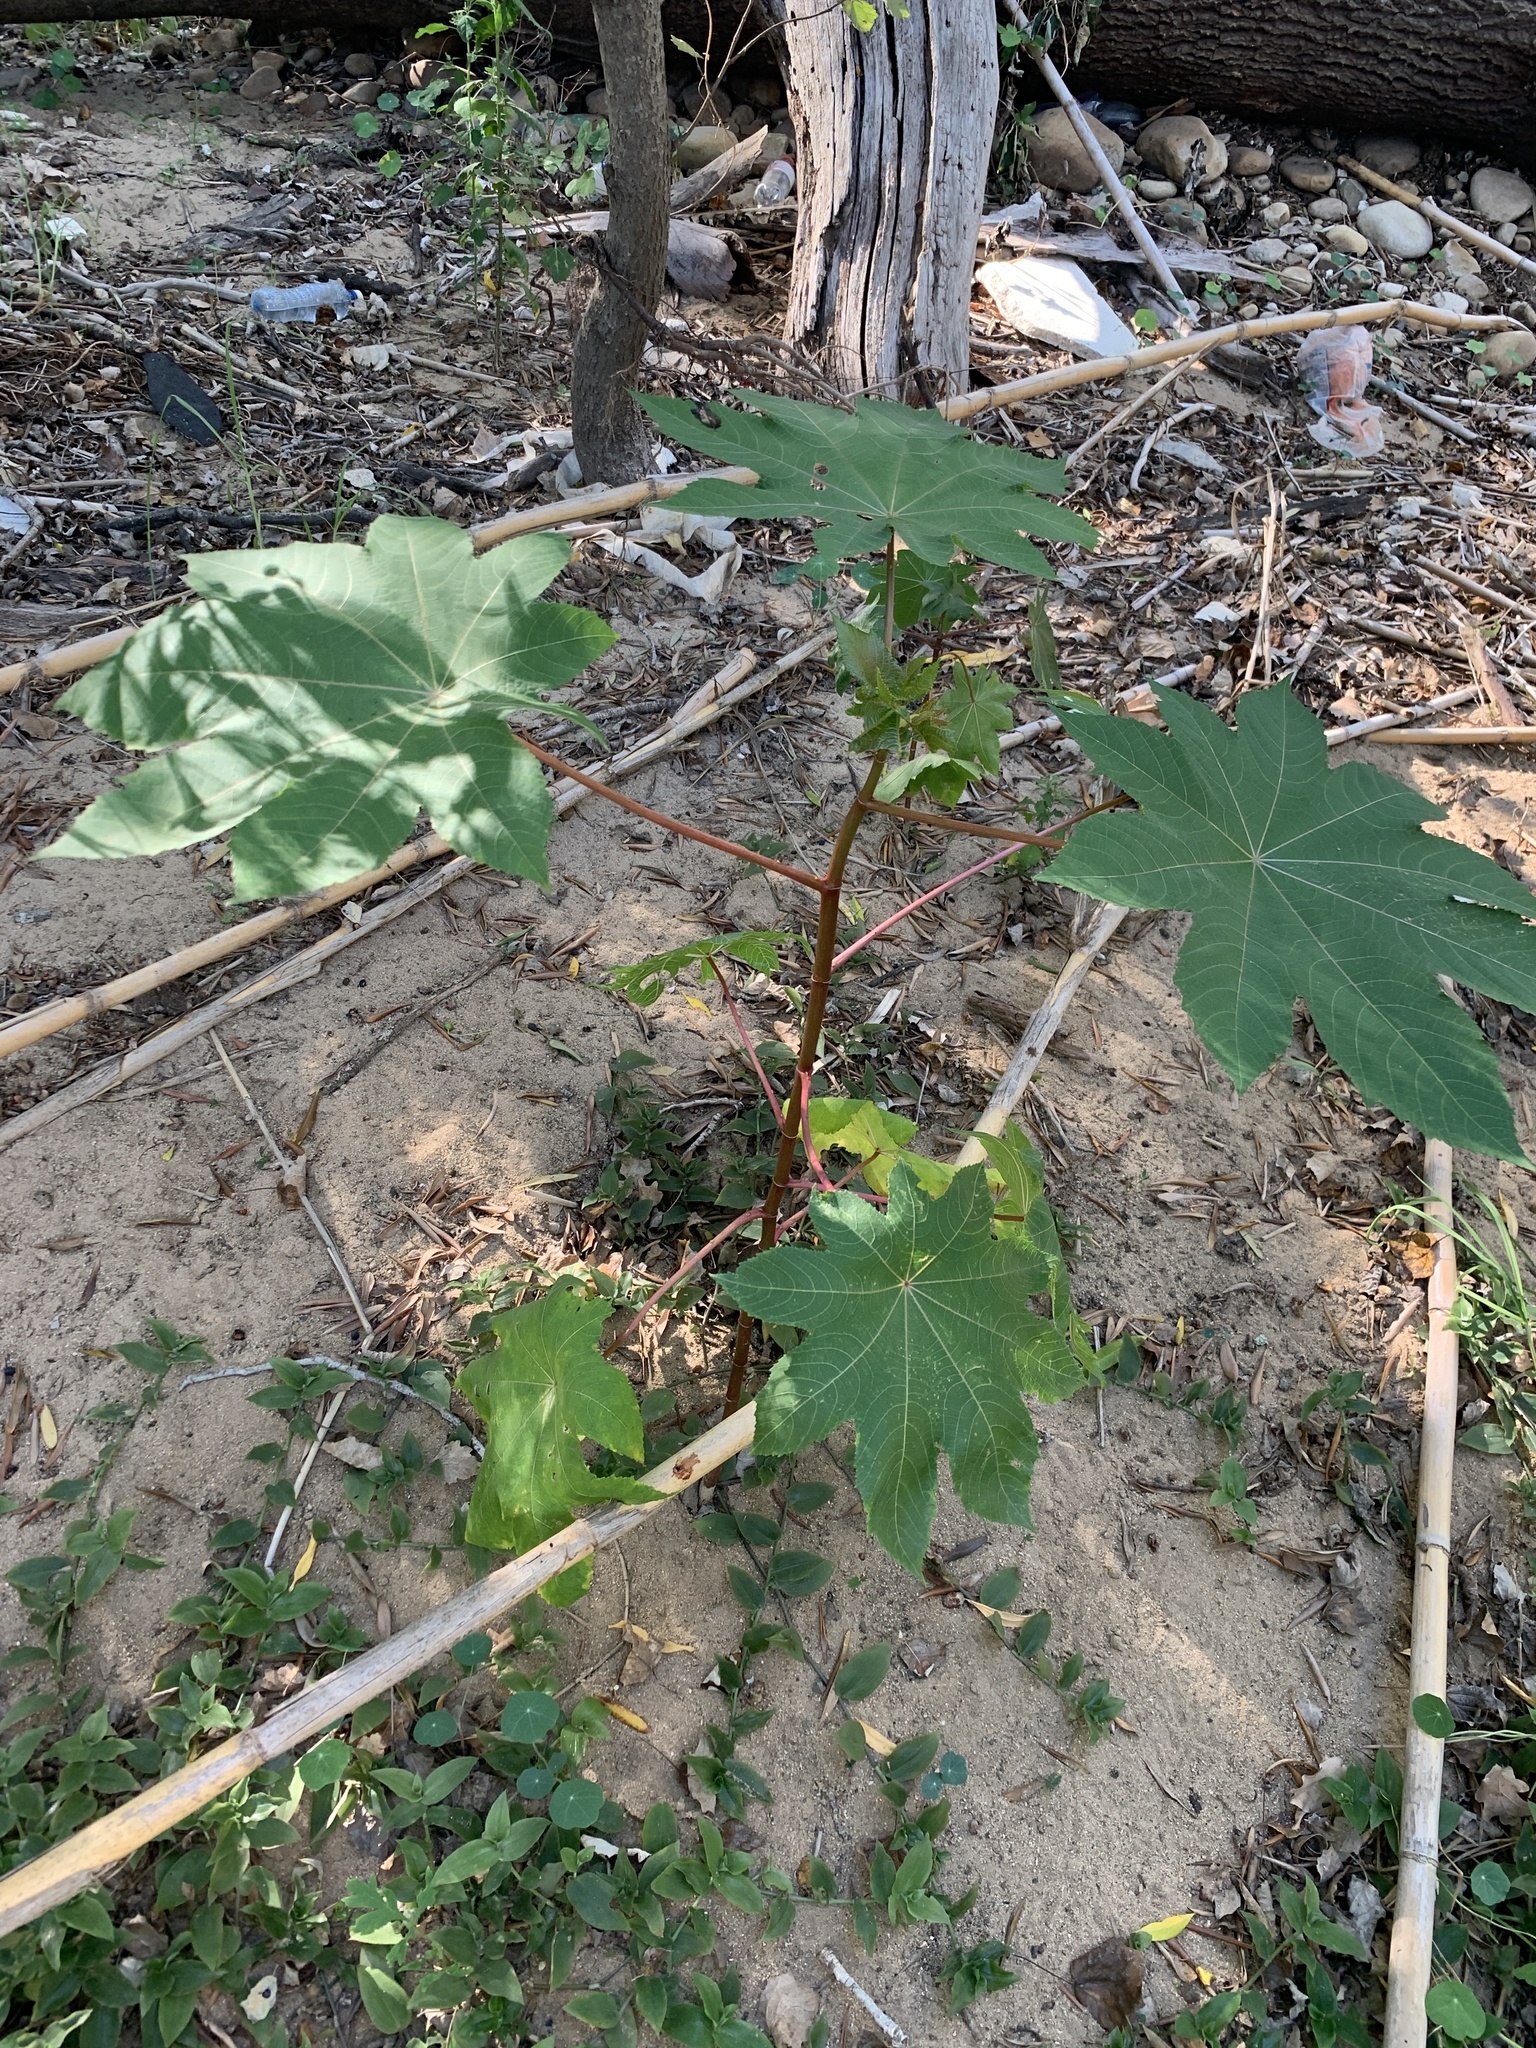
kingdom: Plantae
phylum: Tracheophyta
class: Magnoliopsida
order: Malpighiales
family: Euphorbiaceae
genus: Ricinus
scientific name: Ricinus communis
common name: Castor-oil-plant
